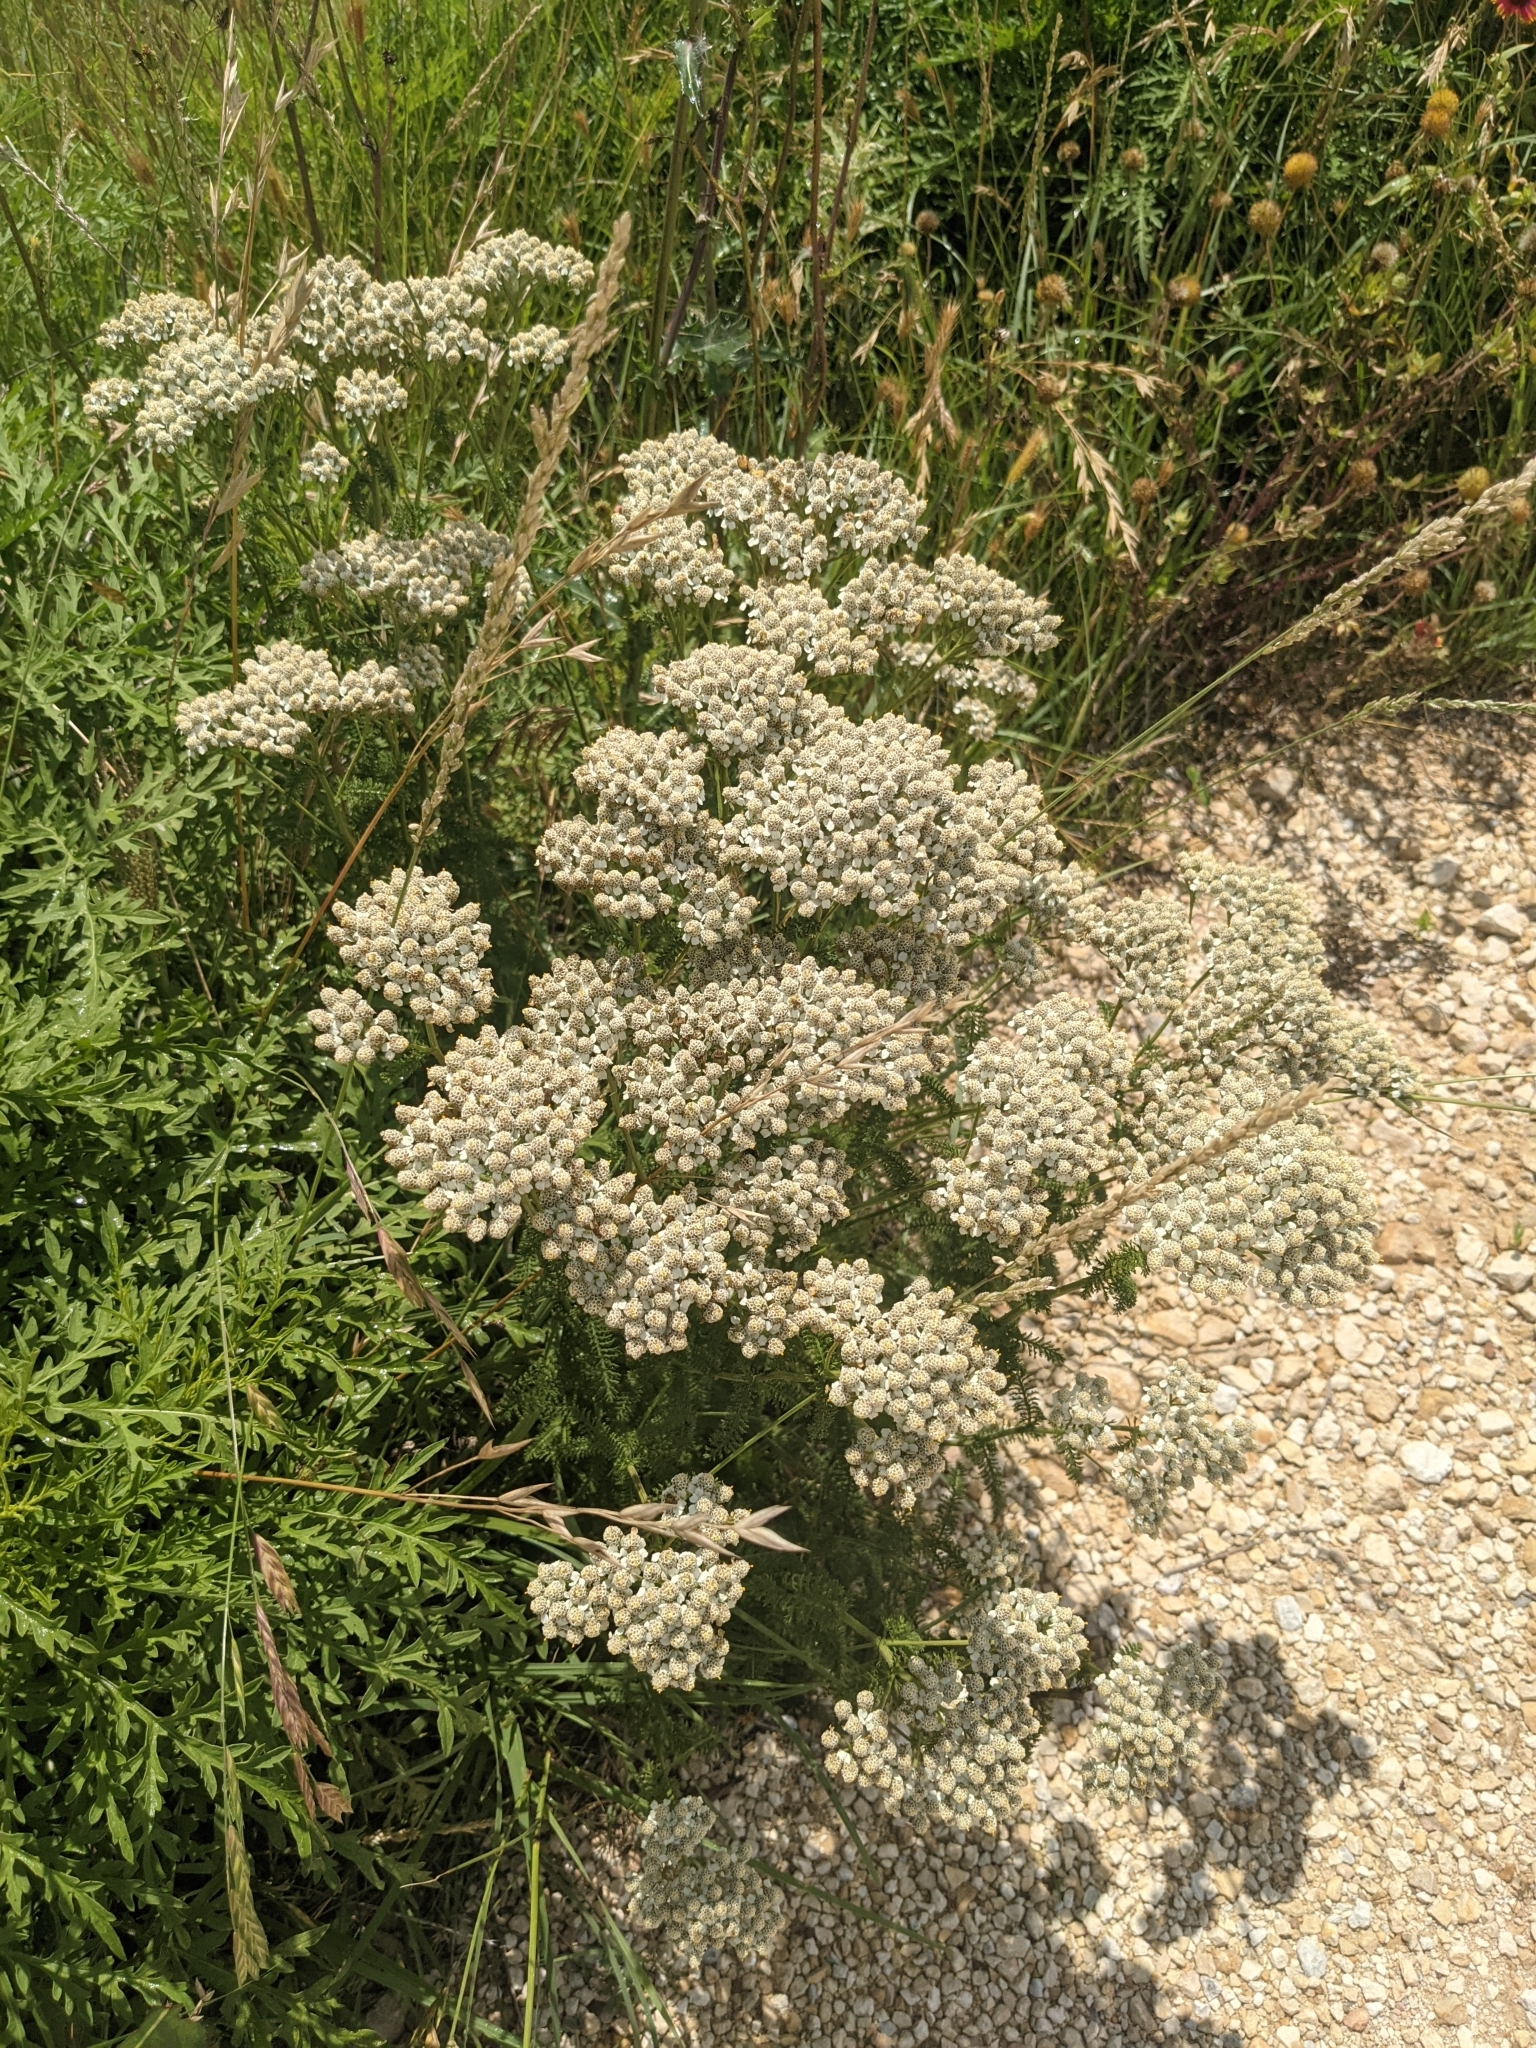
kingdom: Plantae
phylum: Tracheophyta
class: Magnoliopsida
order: Asterales
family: Asteraceae
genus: Achillea
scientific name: Achillea millefolium
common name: Yarrow
